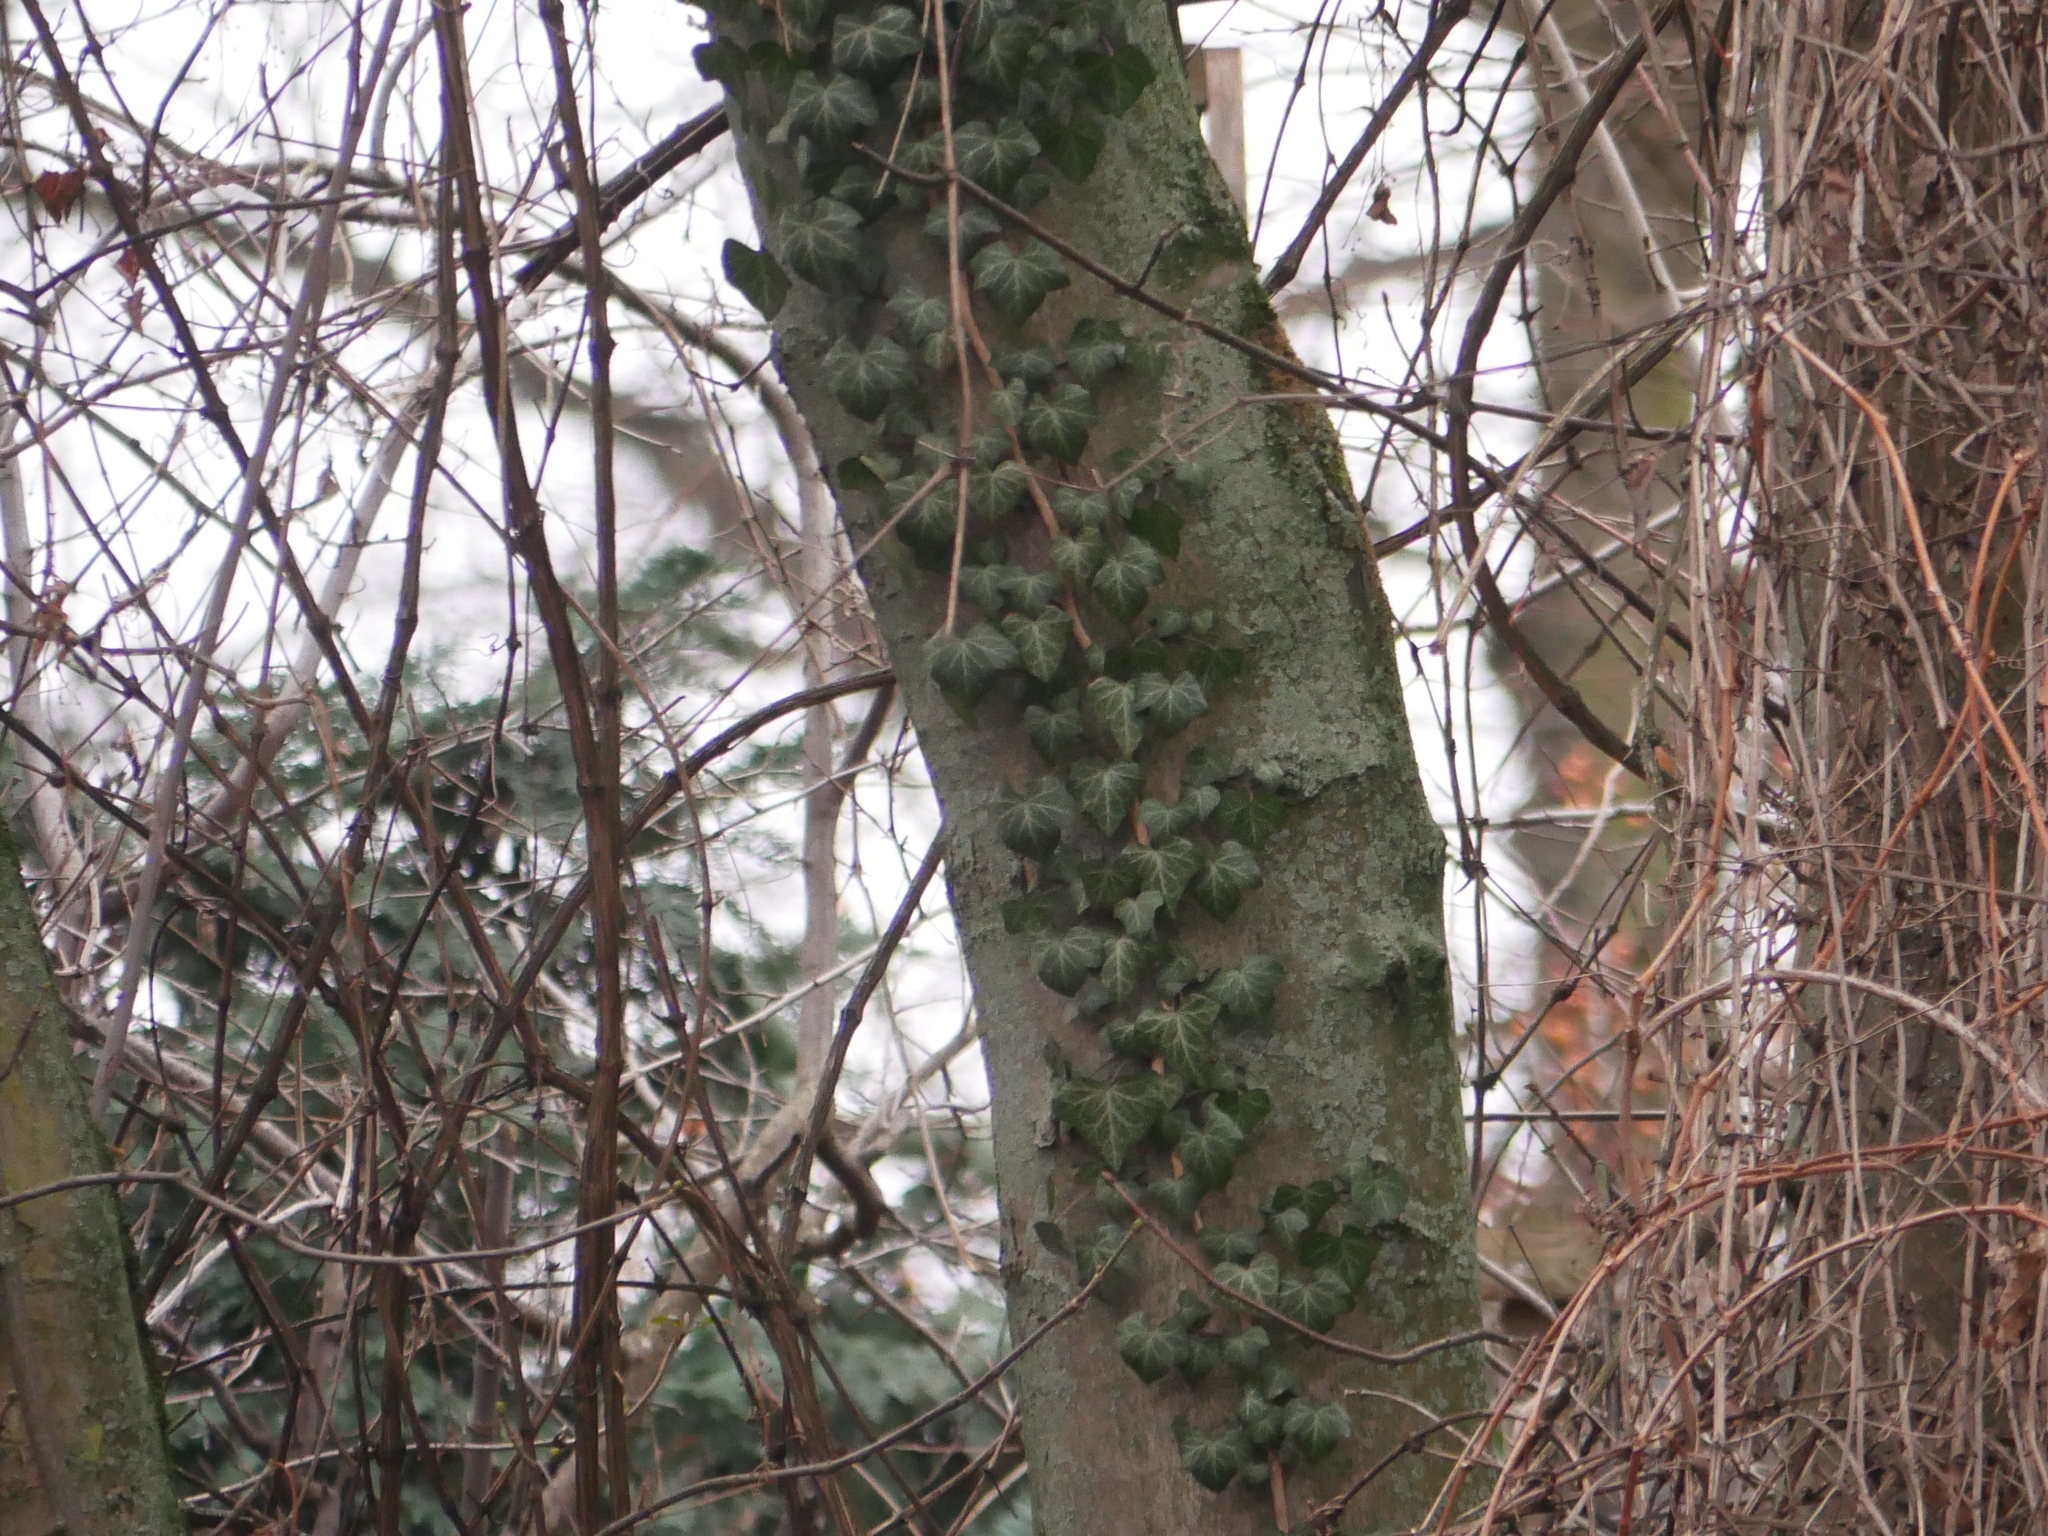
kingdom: Plantae
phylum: Tracheophyta
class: Magnoliopsida
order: Apiales
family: Araliaceae
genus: Hedera
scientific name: Hedera helix
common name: Ivy
